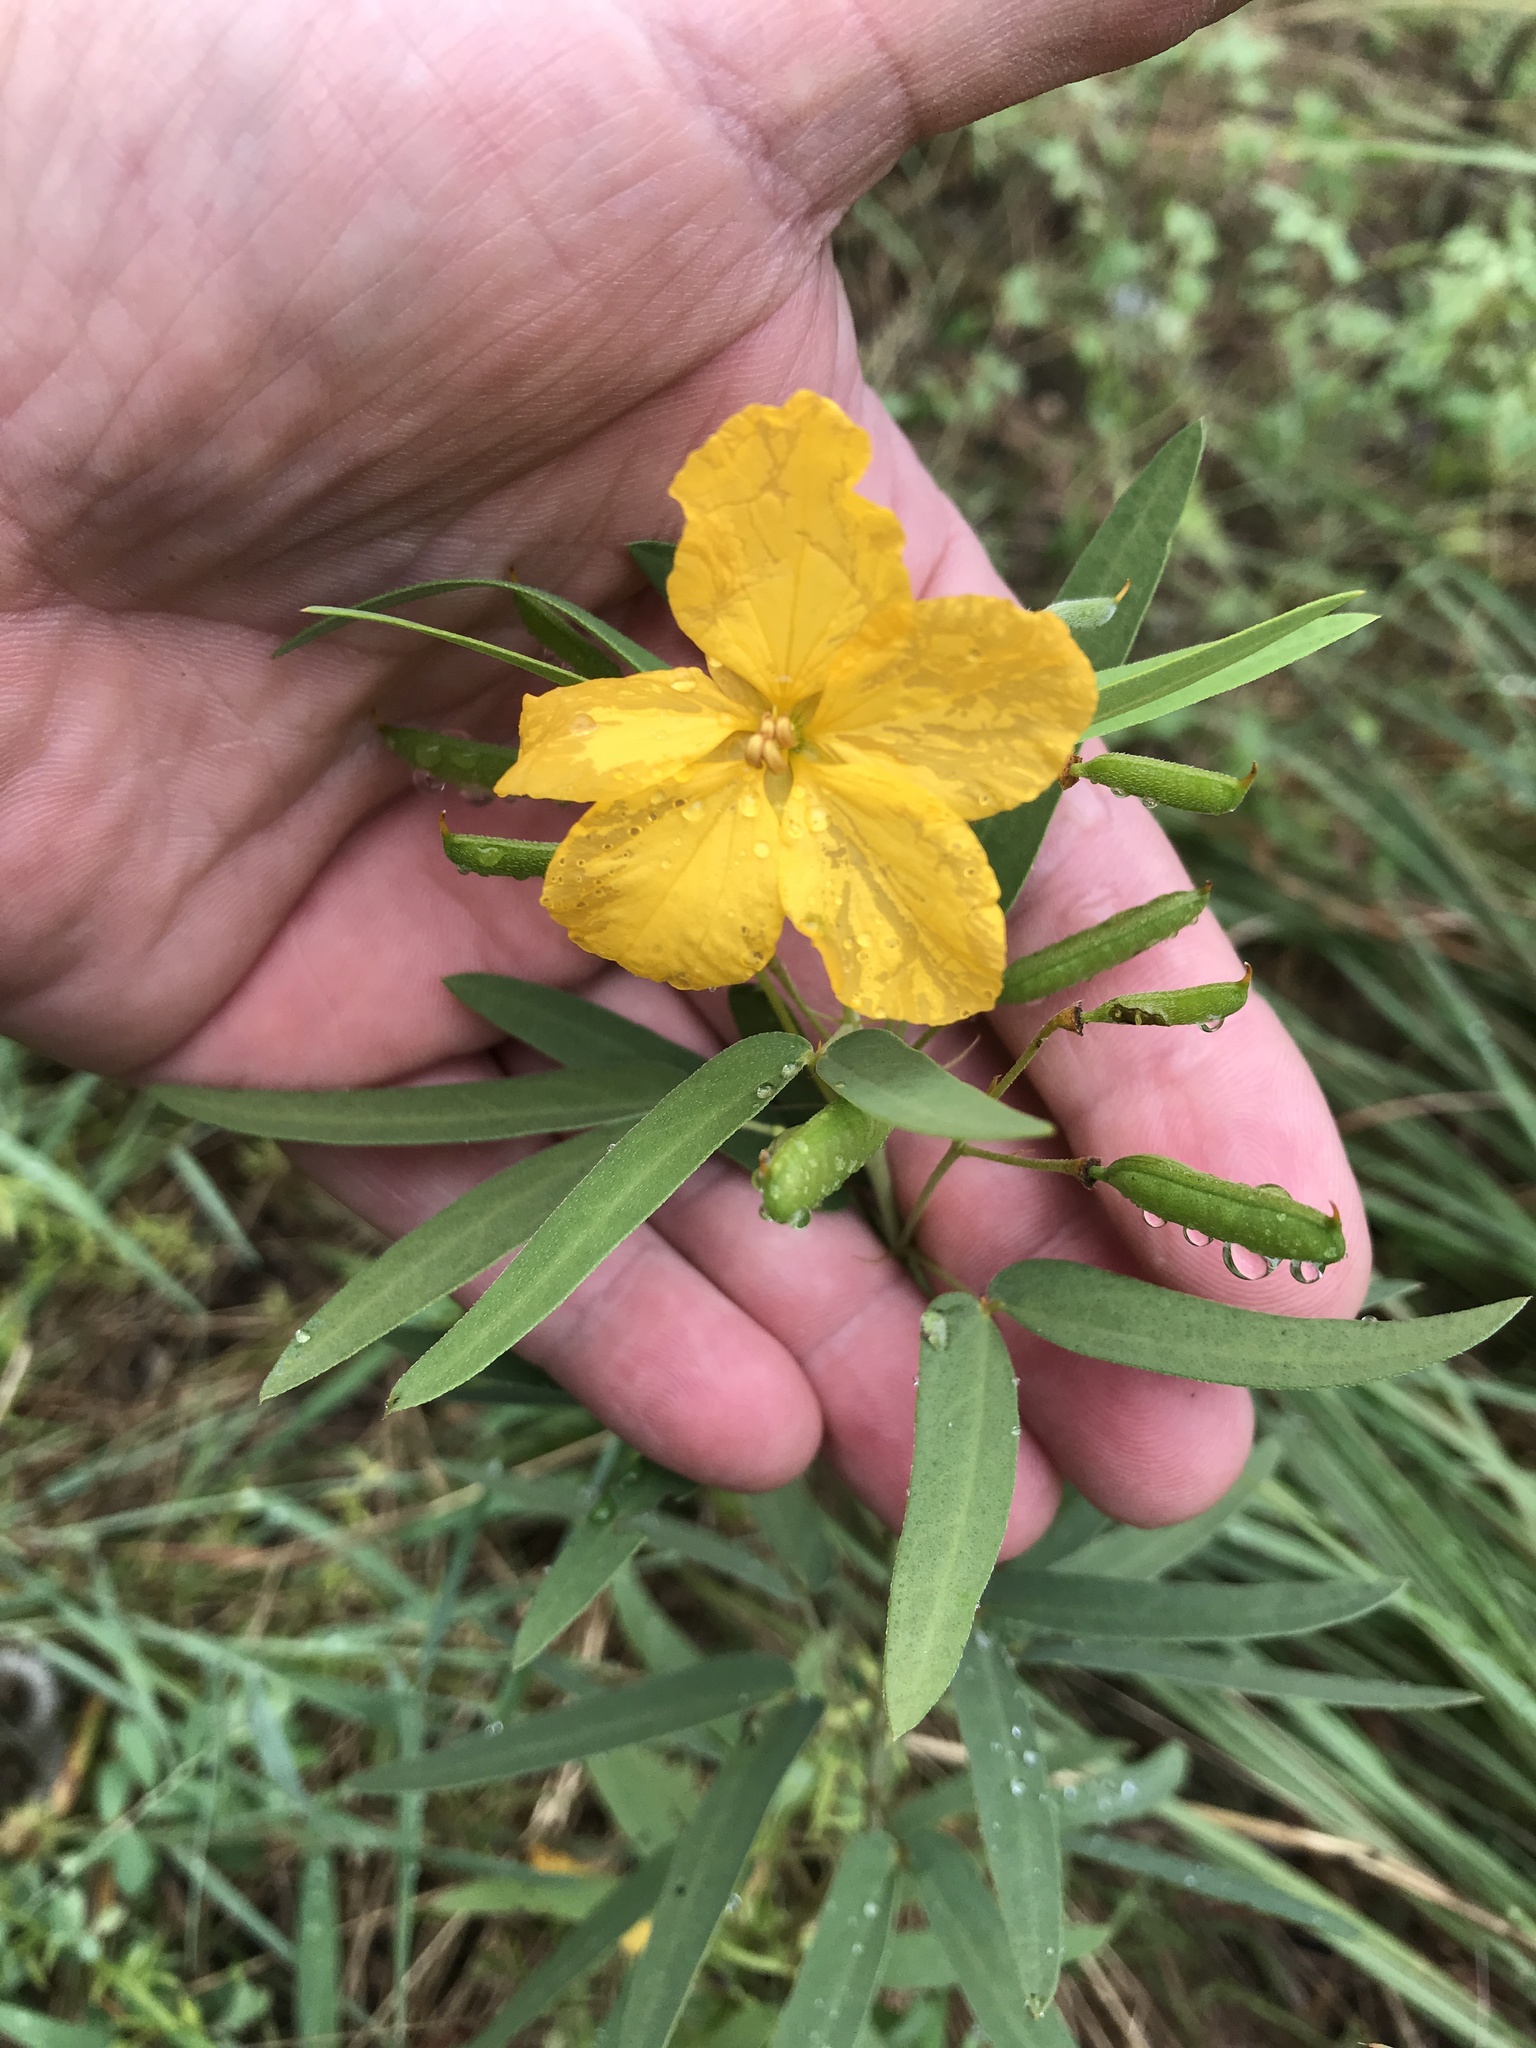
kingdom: Plantae
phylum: Tracheophyta
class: Magnoliopsida
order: Fabales
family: Fabaceae
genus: Senna
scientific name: Senna roemeriana
